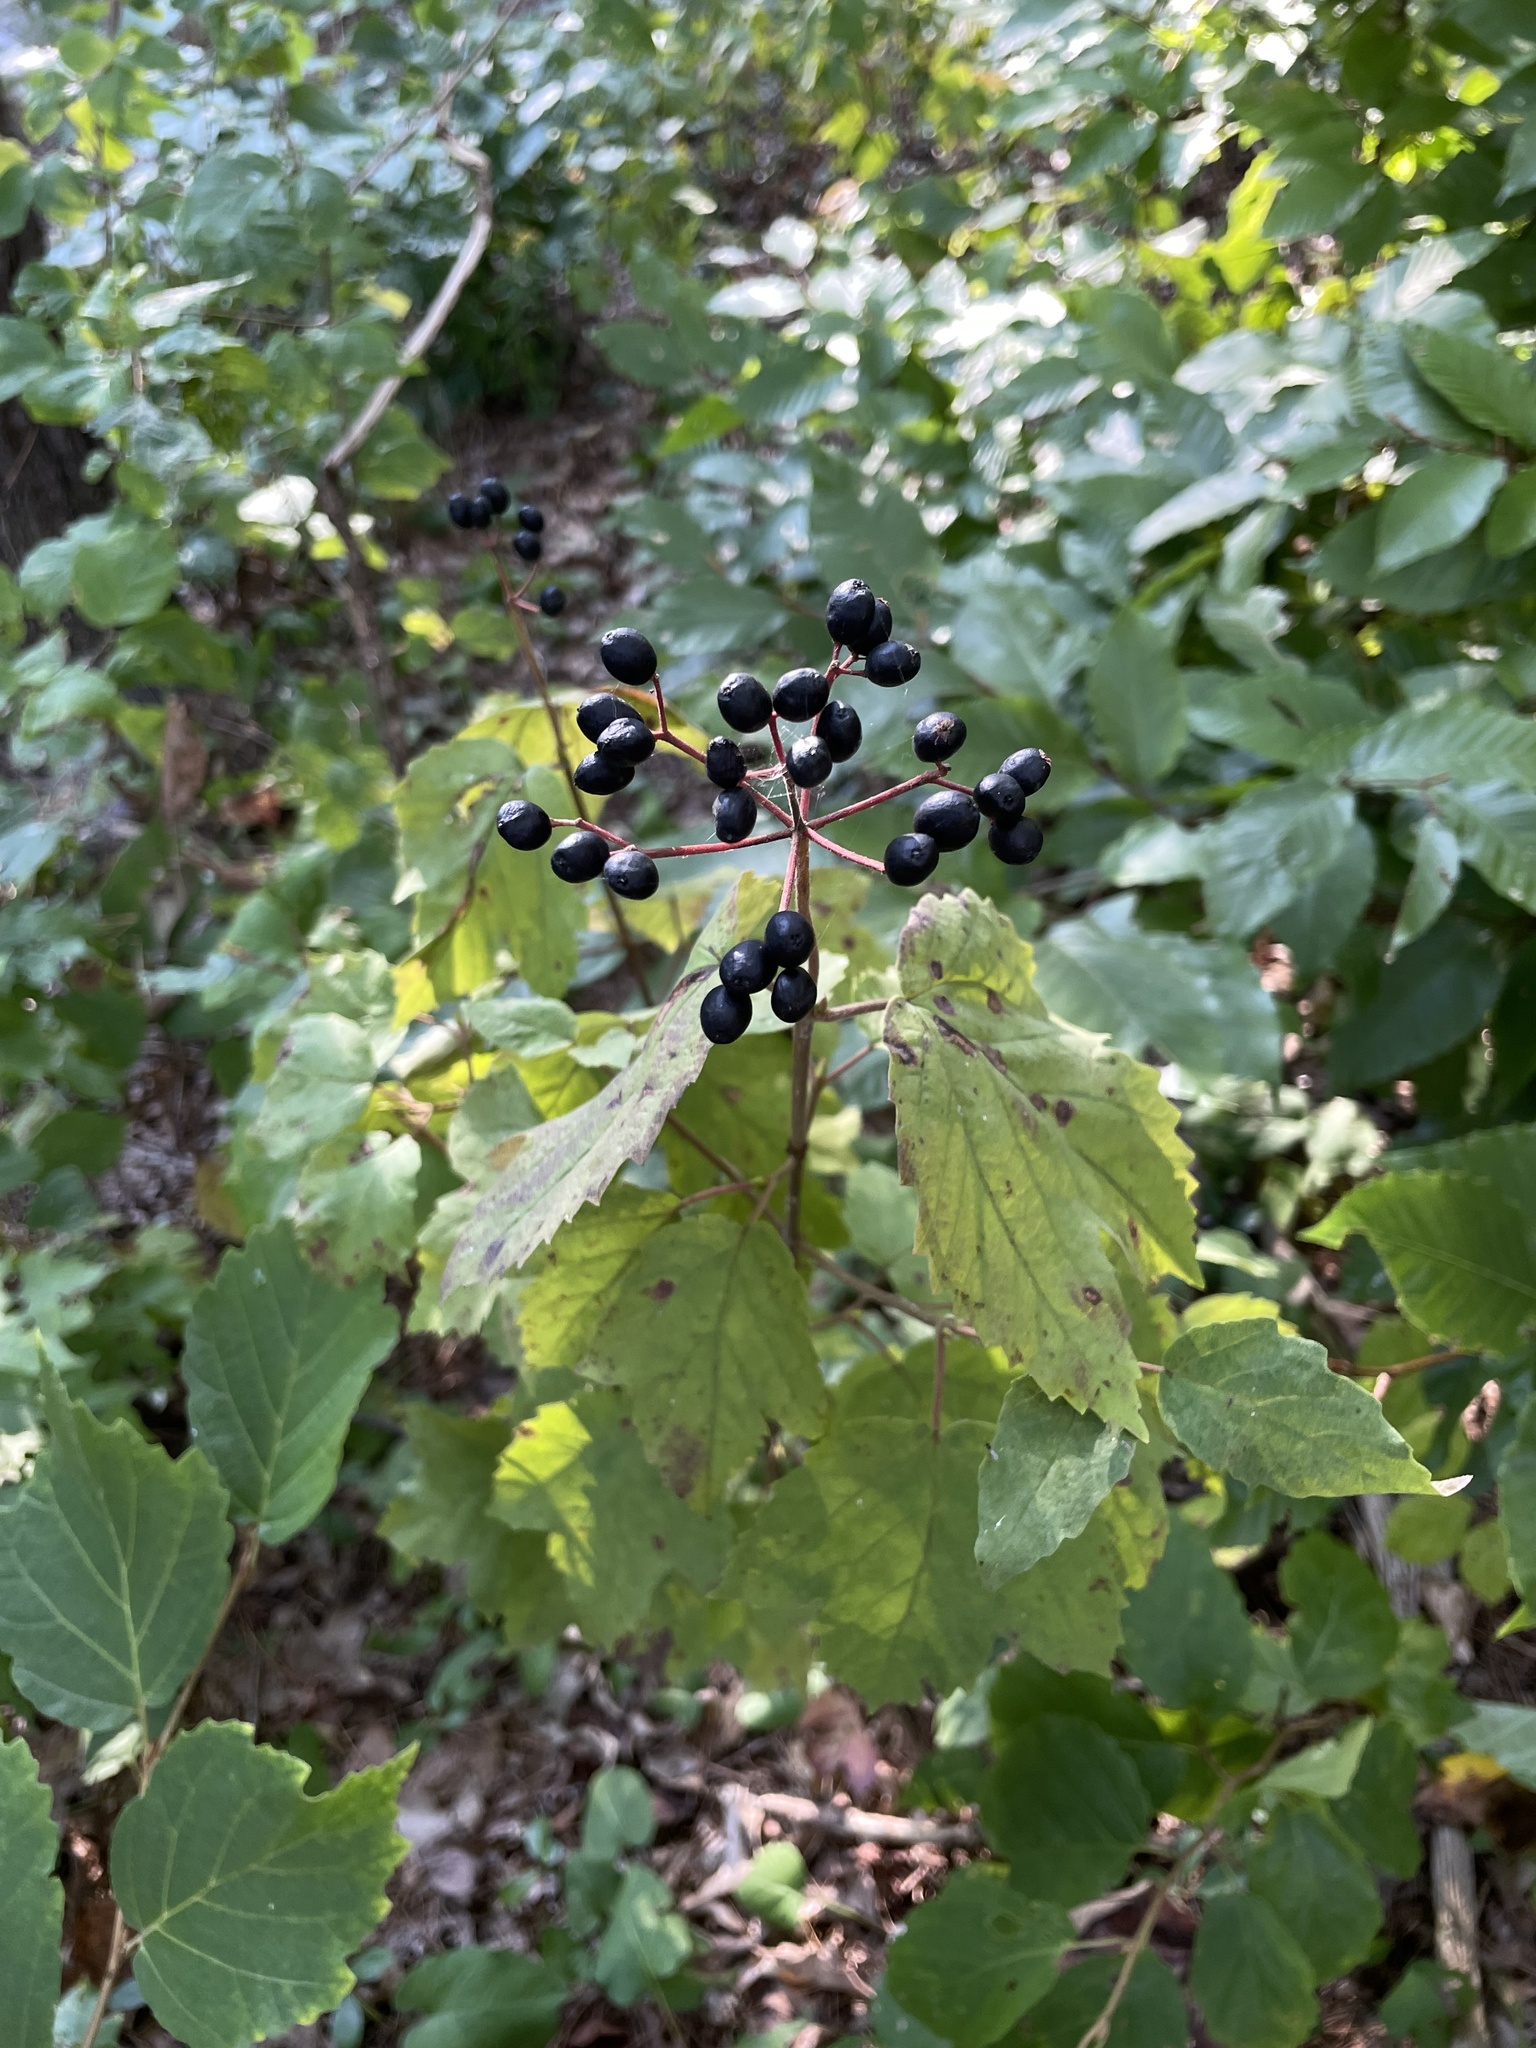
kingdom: Plantae
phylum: Tracheophyta
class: Magnoliopsida
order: Dipsacales
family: Viburnaceae
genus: Viburnum
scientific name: Viburnum acerifolium
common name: Dockmackie
